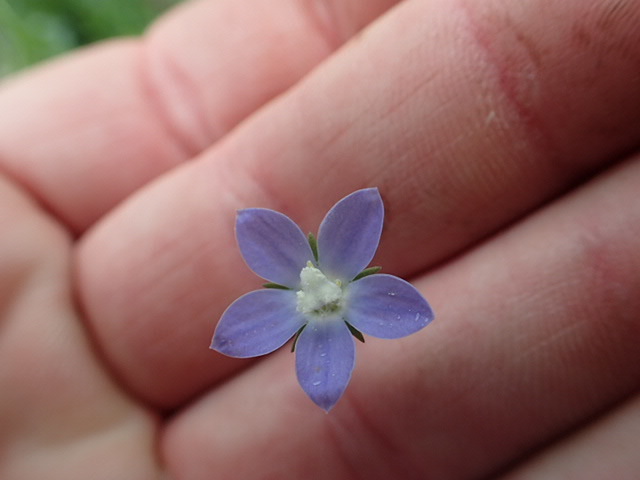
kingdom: Plantae
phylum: Tracheophyta
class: Magnoliopsida
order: Asterales
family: Campanulaceae
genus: Wahlenbergia
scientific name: Wahlenbergia marginata
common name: Southern rockbell
